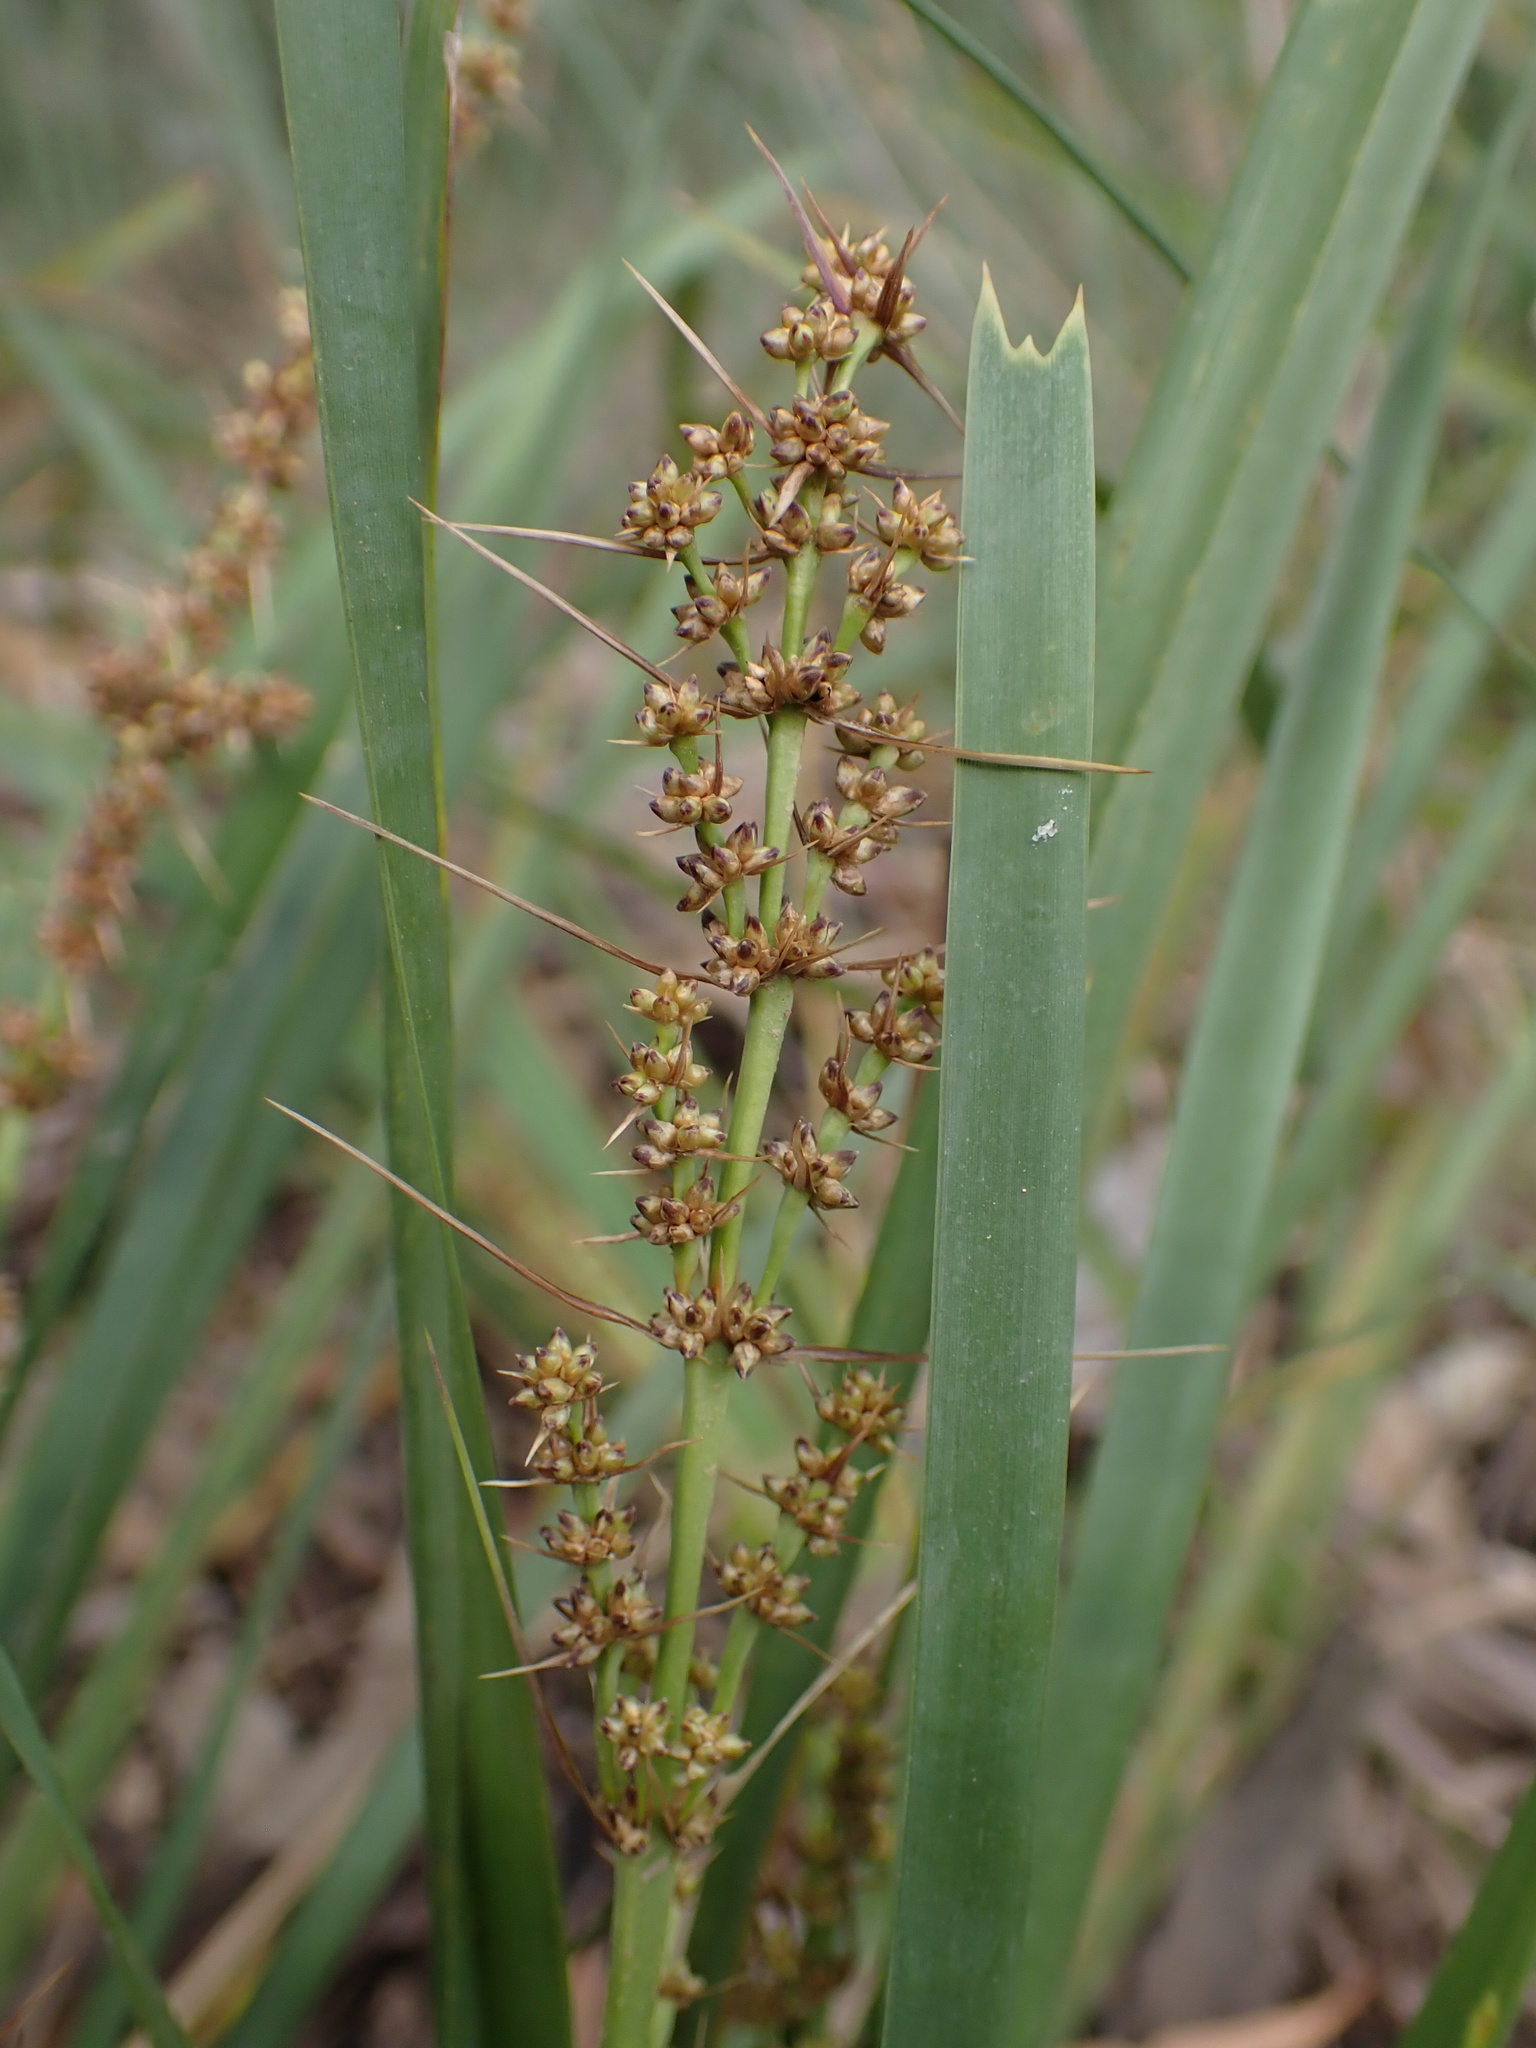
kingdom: Plantae
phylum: Tracheophyta
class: Liliopsida
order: Asparagales
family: Asparagaceae
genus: Lomandra
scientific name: Lomandra longifolia
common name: Longleaf mat-rush
